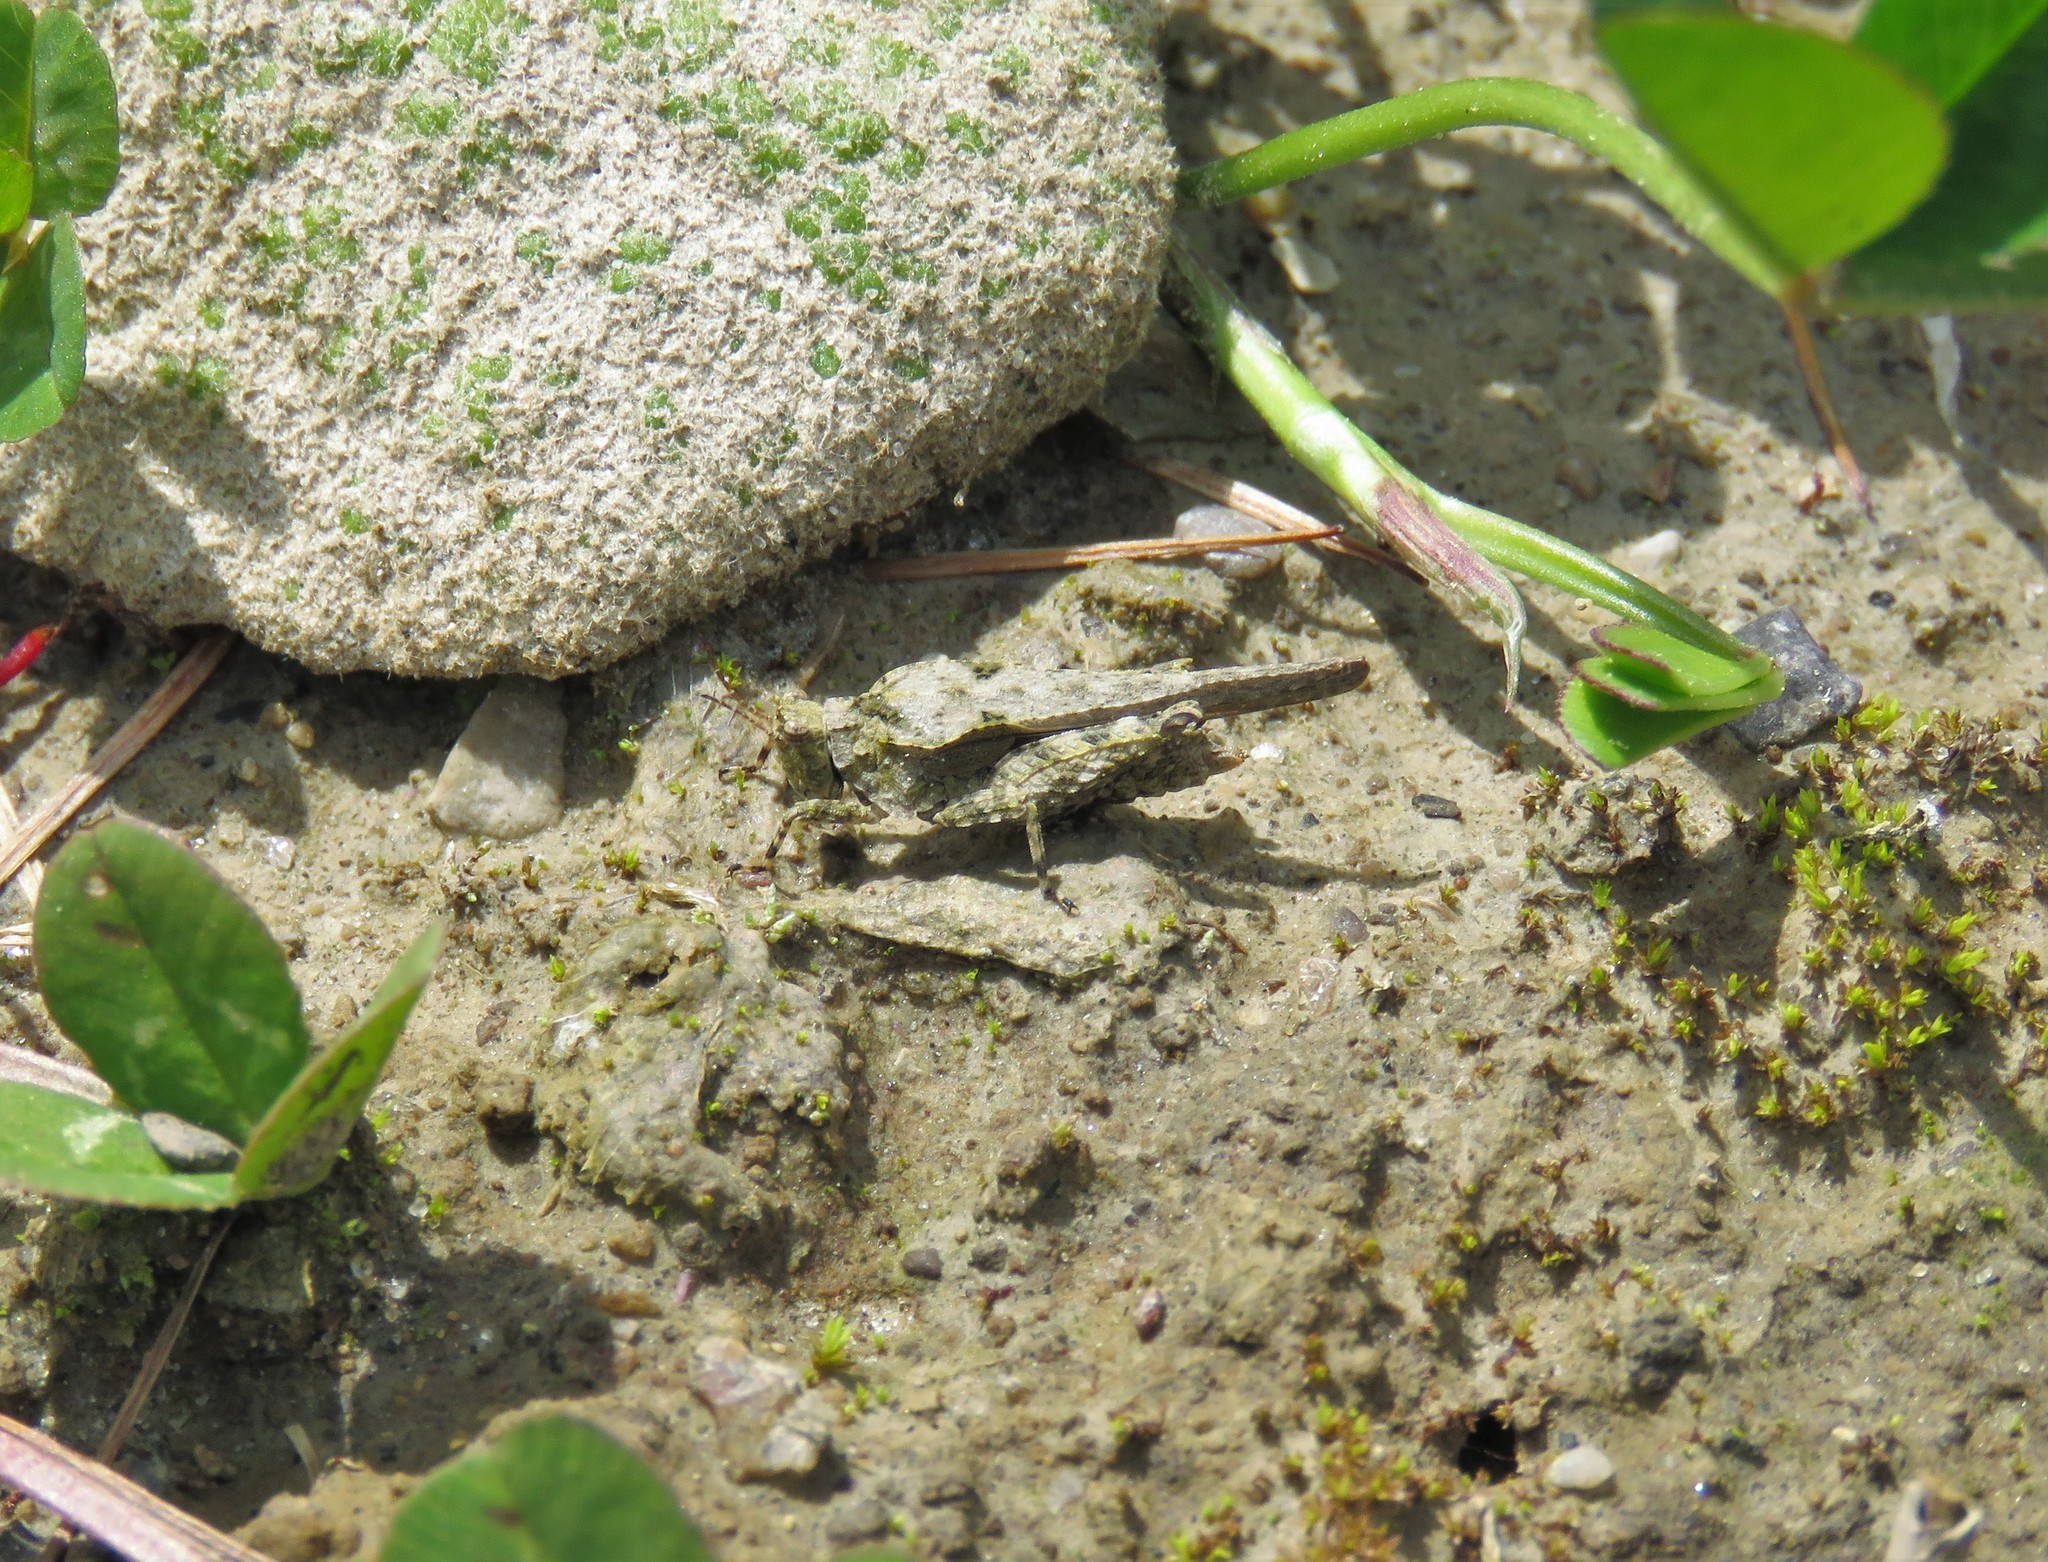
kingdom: Animalia
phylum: Arthropoda
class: Insecta
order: Orthoptera
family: Tetrigidae
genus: Tetrix
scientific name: Tetrix arenosa
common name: Ornate pygmy grasshopper
